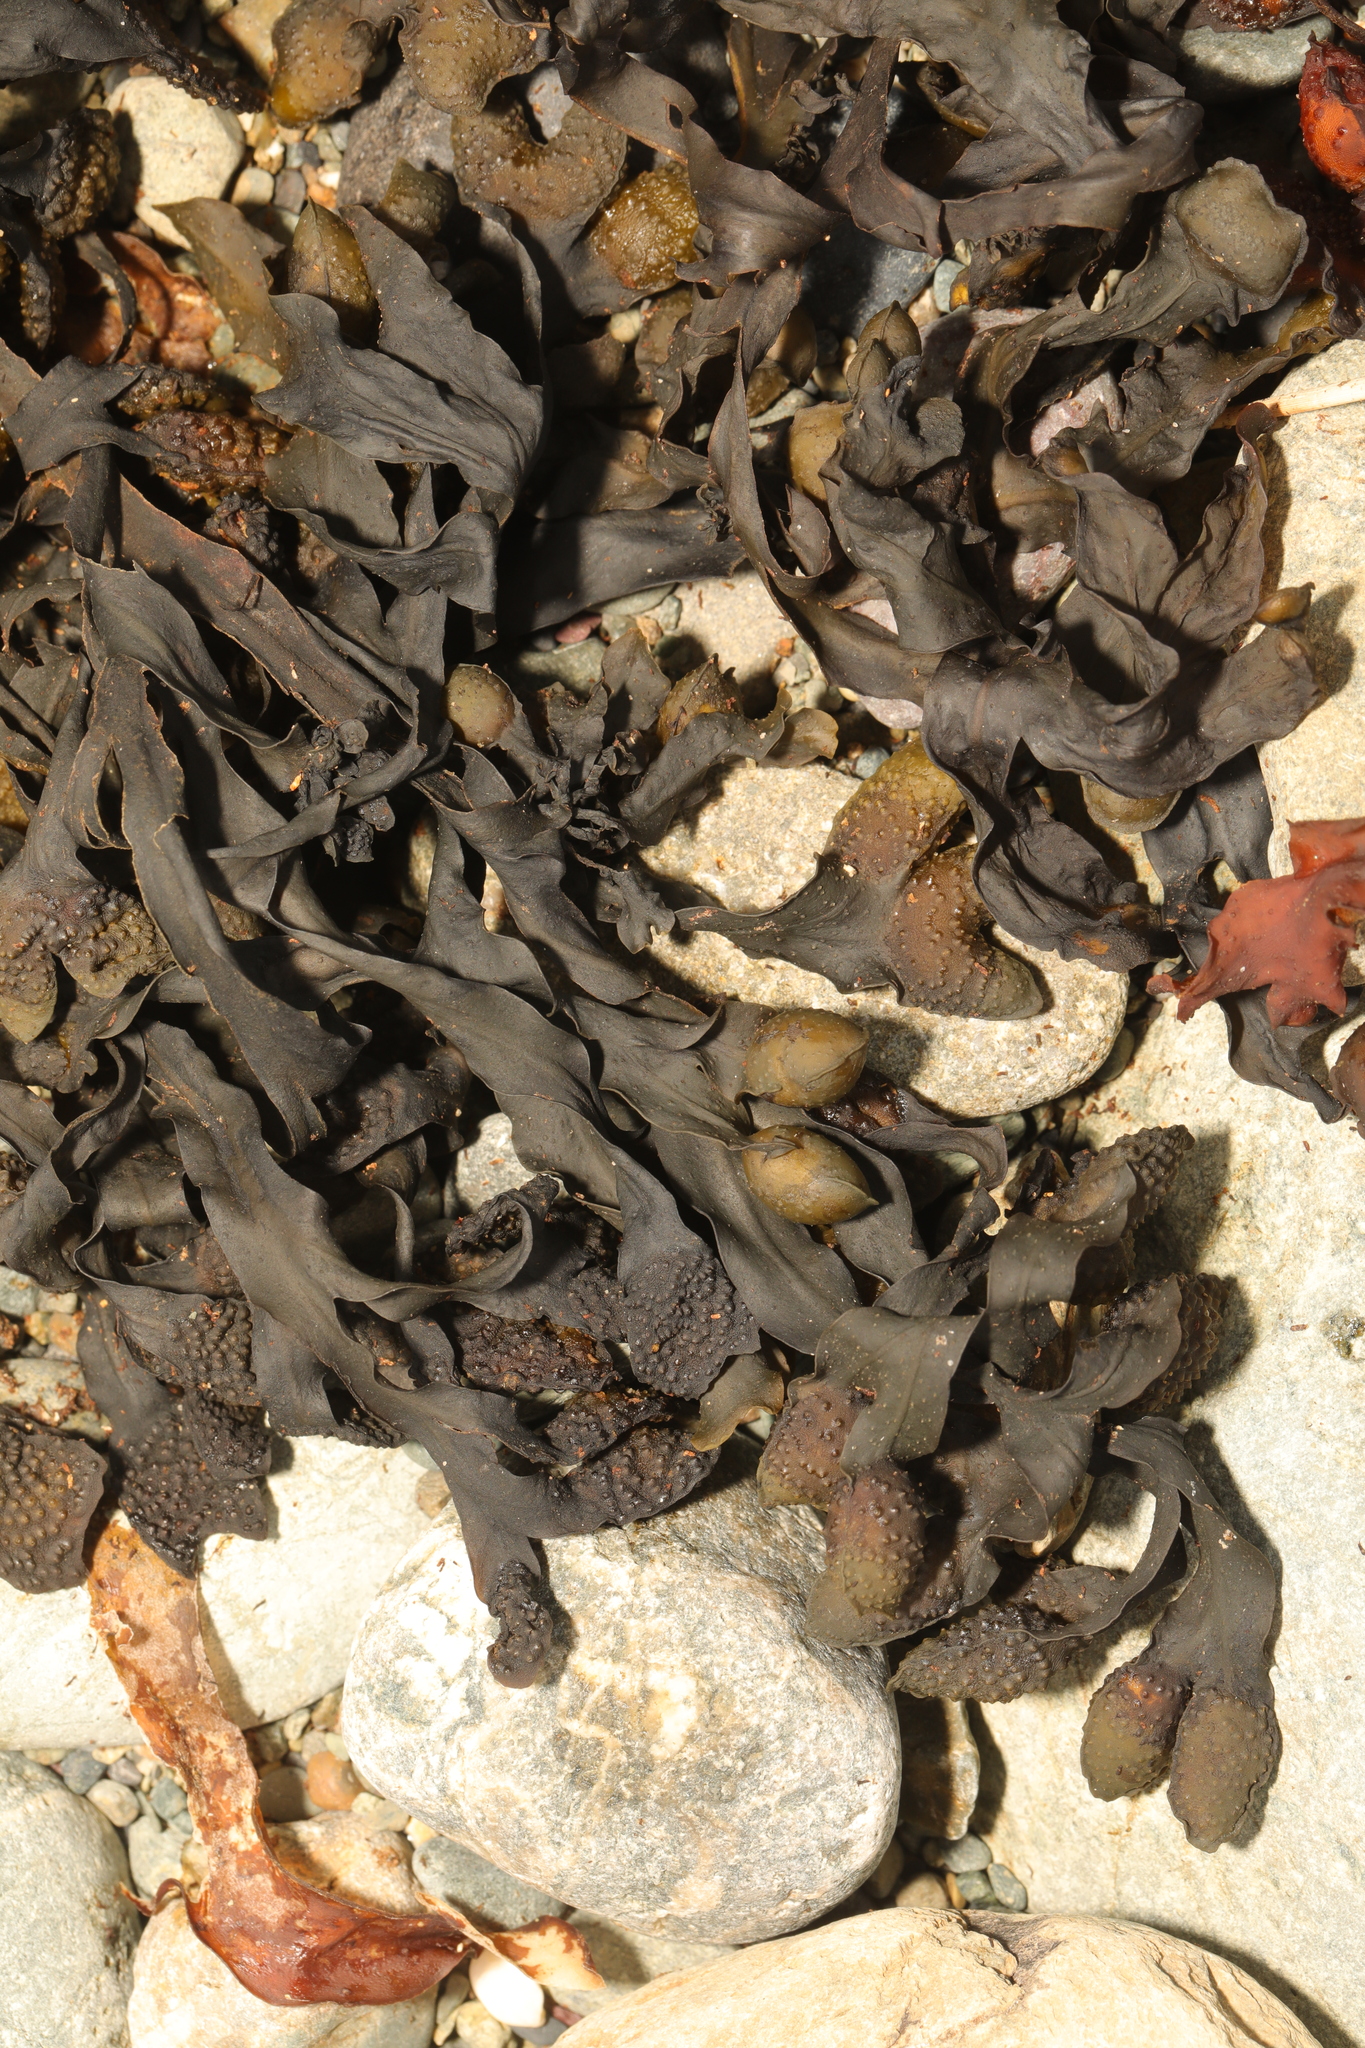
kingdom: Chromista
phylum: Ochrophyta
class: Phaeophyceae
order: Fucales
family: Fucaceae
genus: Fucus
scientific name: Fucus spiralis
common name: Spiral wrack
